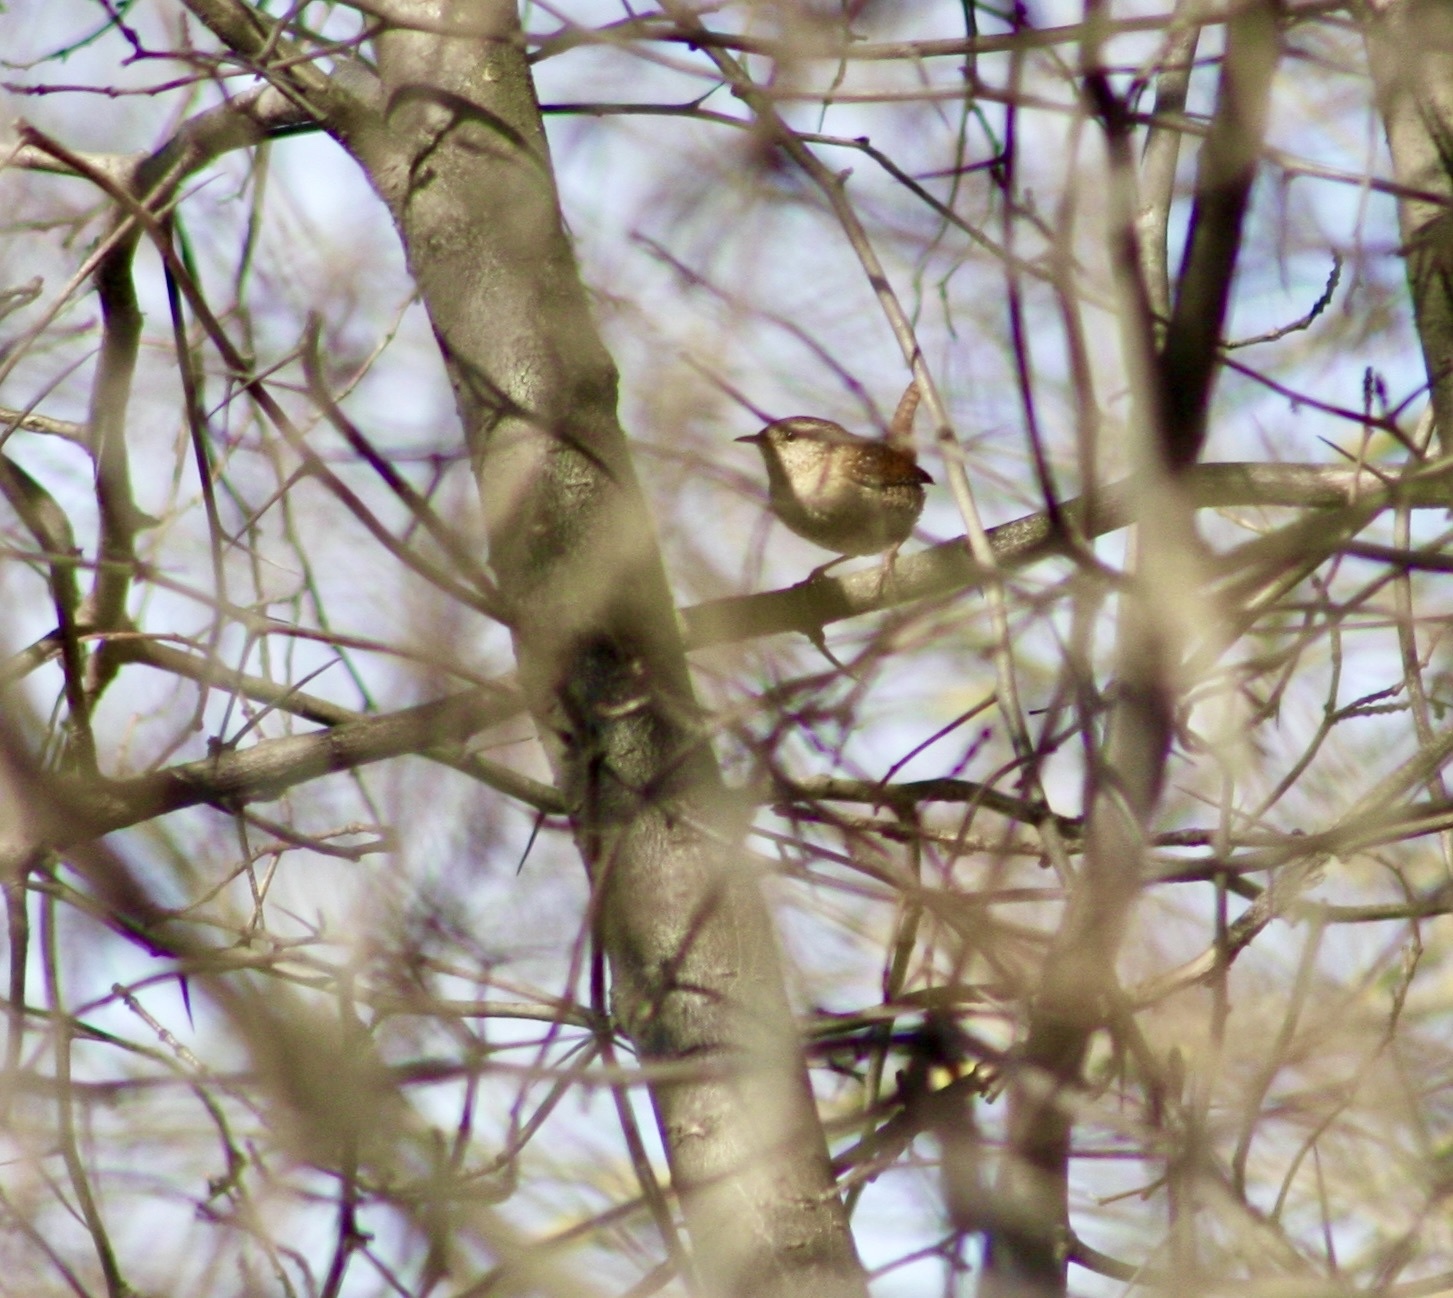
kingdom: Animalia
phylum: Chordata
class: Aves
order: Passeriformes
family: Troglodytidae
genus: Troglodytes
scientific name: Troglodytes troglodytes
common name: Eurasian wren
